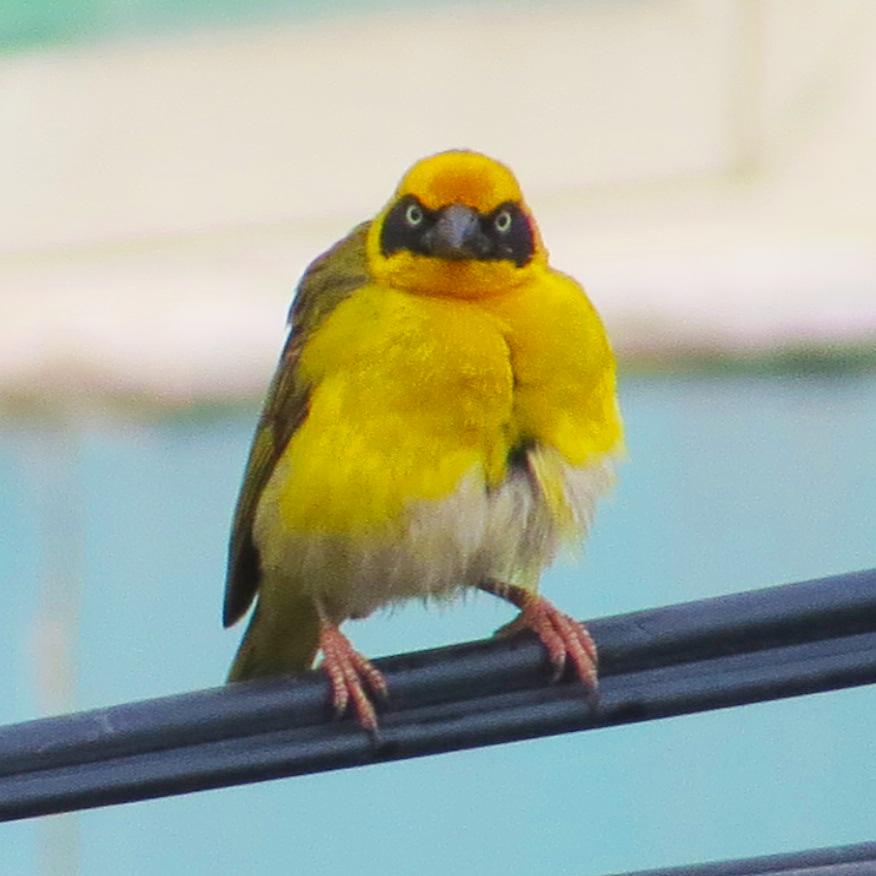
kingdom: Animalia
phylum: Chordata
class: Aves
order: Passeriformes
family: Ploceidae
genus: Ploceus
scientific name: Ploceus baglafecht
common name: Baglafecht weaver
